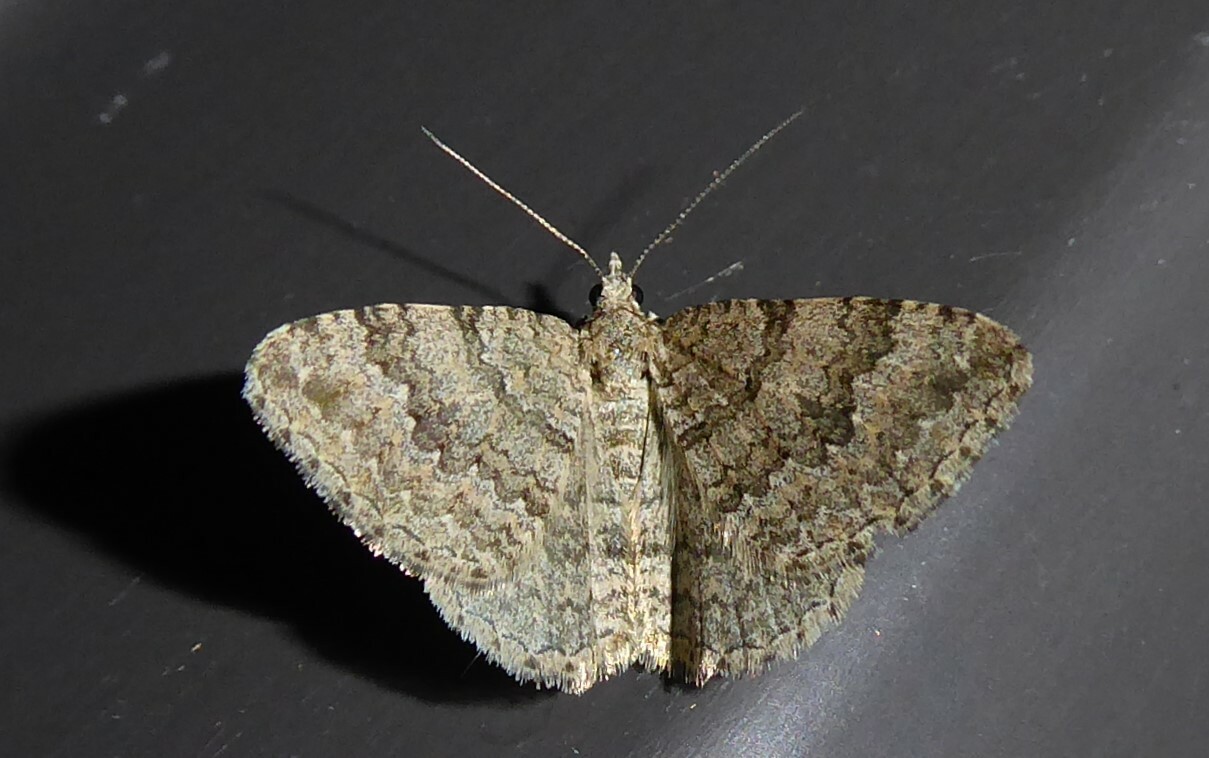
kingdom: Animalia
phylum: Arthropoda
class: Insecta
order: Lepidoptera
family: Geometridae
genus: Helastia
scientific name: Helastia corcularia
